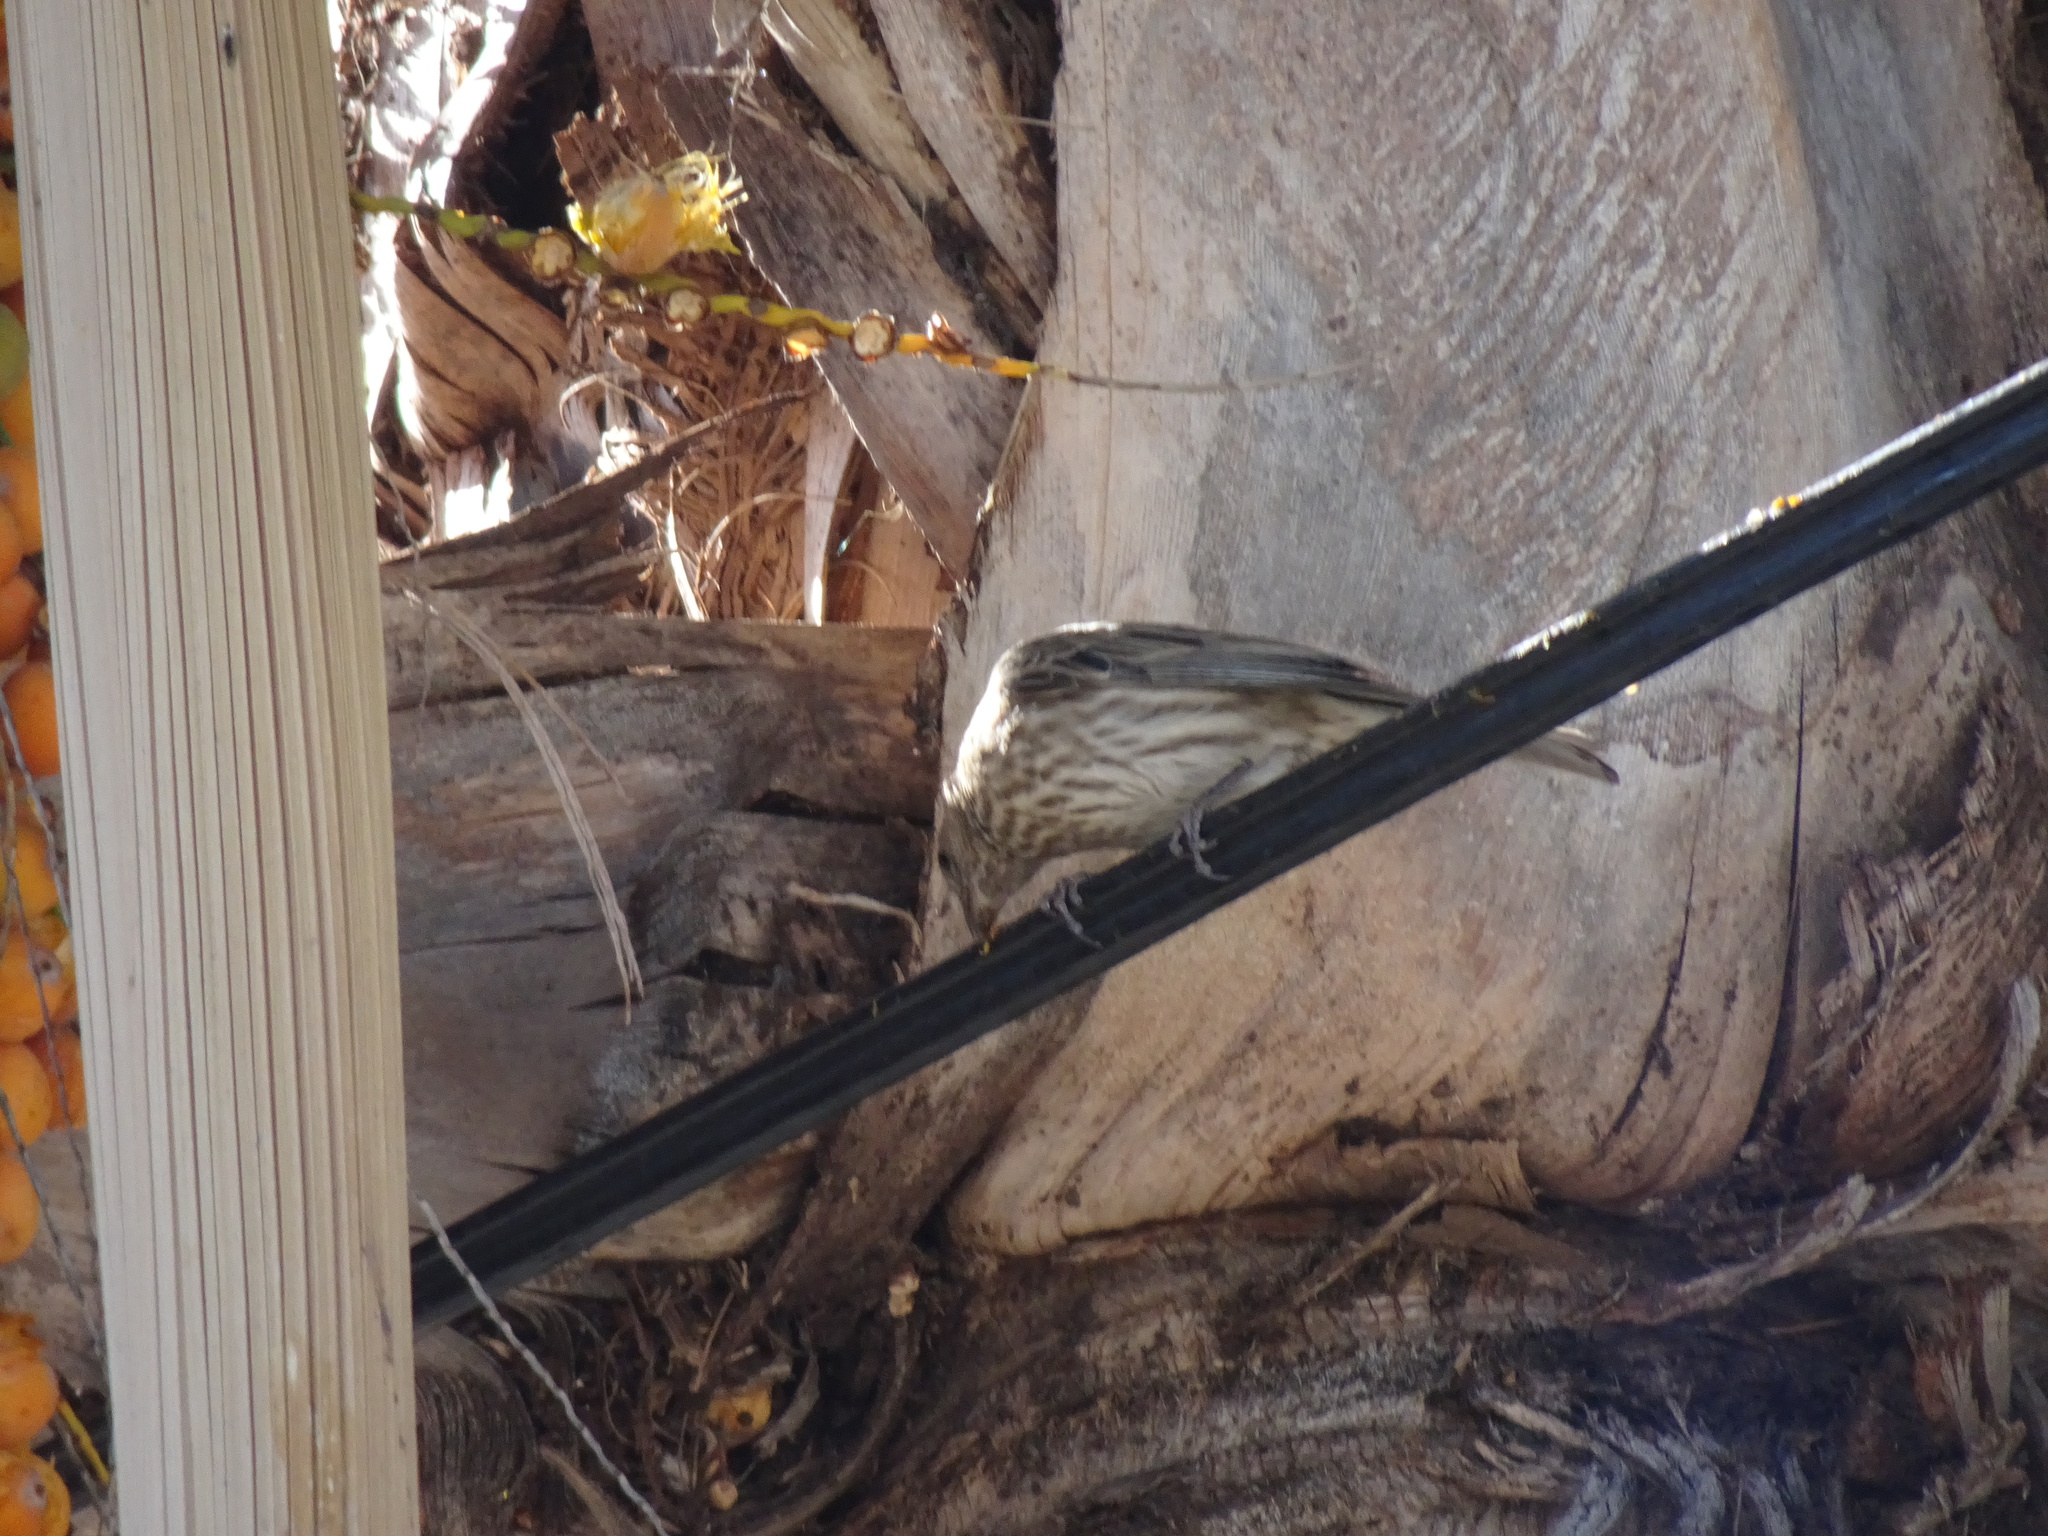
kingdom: Animalia
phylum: Chordata
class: Aves
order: Passeriformes
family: Fringillidae
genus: Haemorhous
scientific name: Haemorhous mexicanus
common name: House finch
